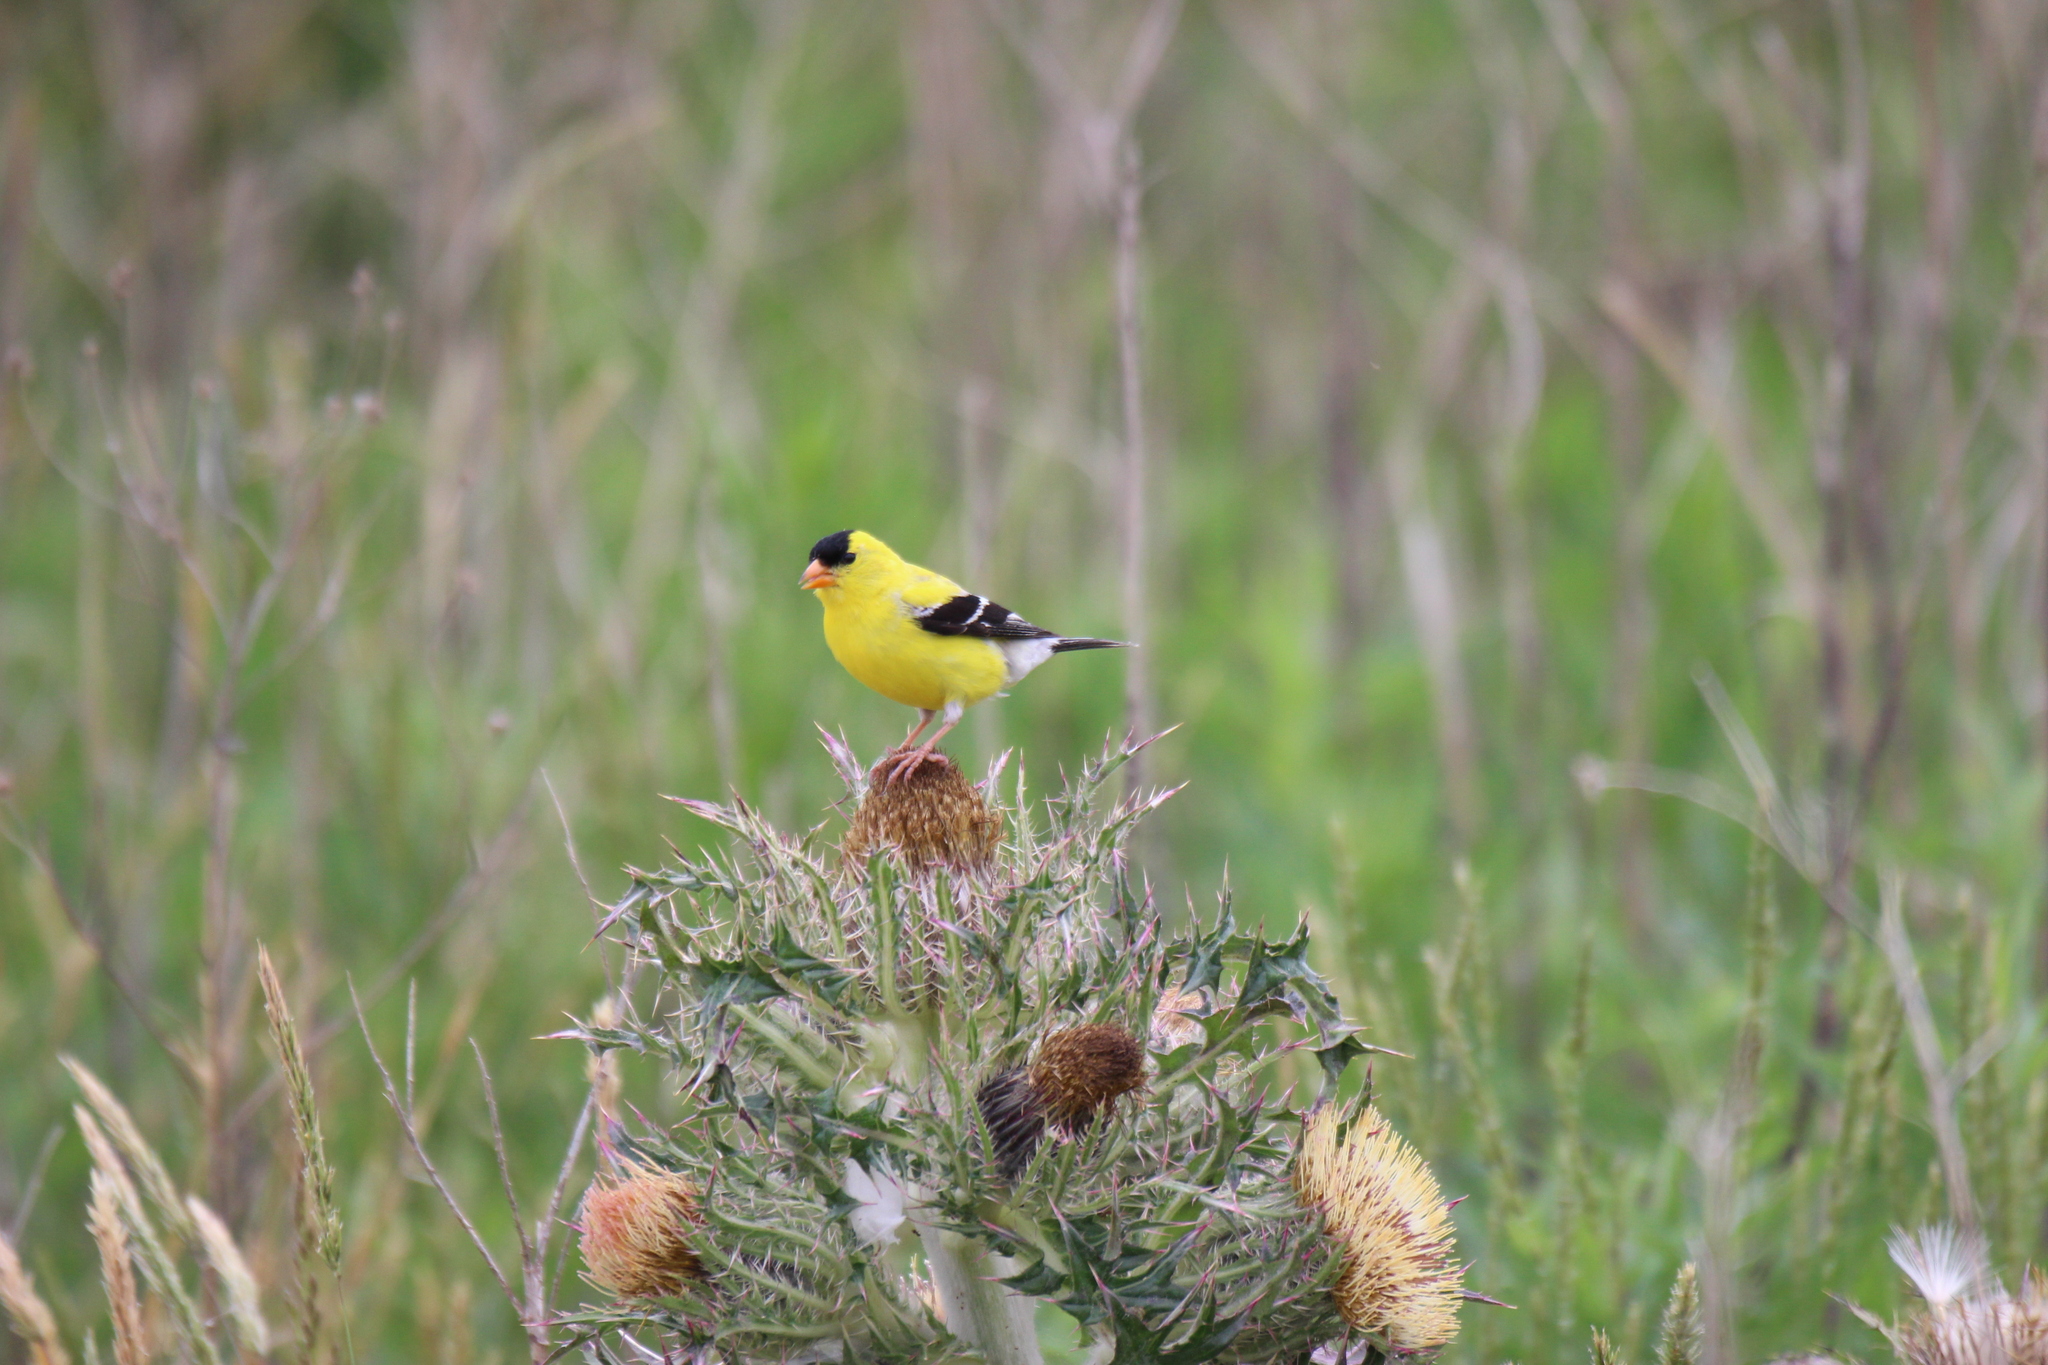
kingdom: Animalia
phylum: Chordata
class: Aves
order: Passeriformes
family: Fringillidae
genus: Spinus
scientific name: Spinus tristis
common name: American goldfinch
